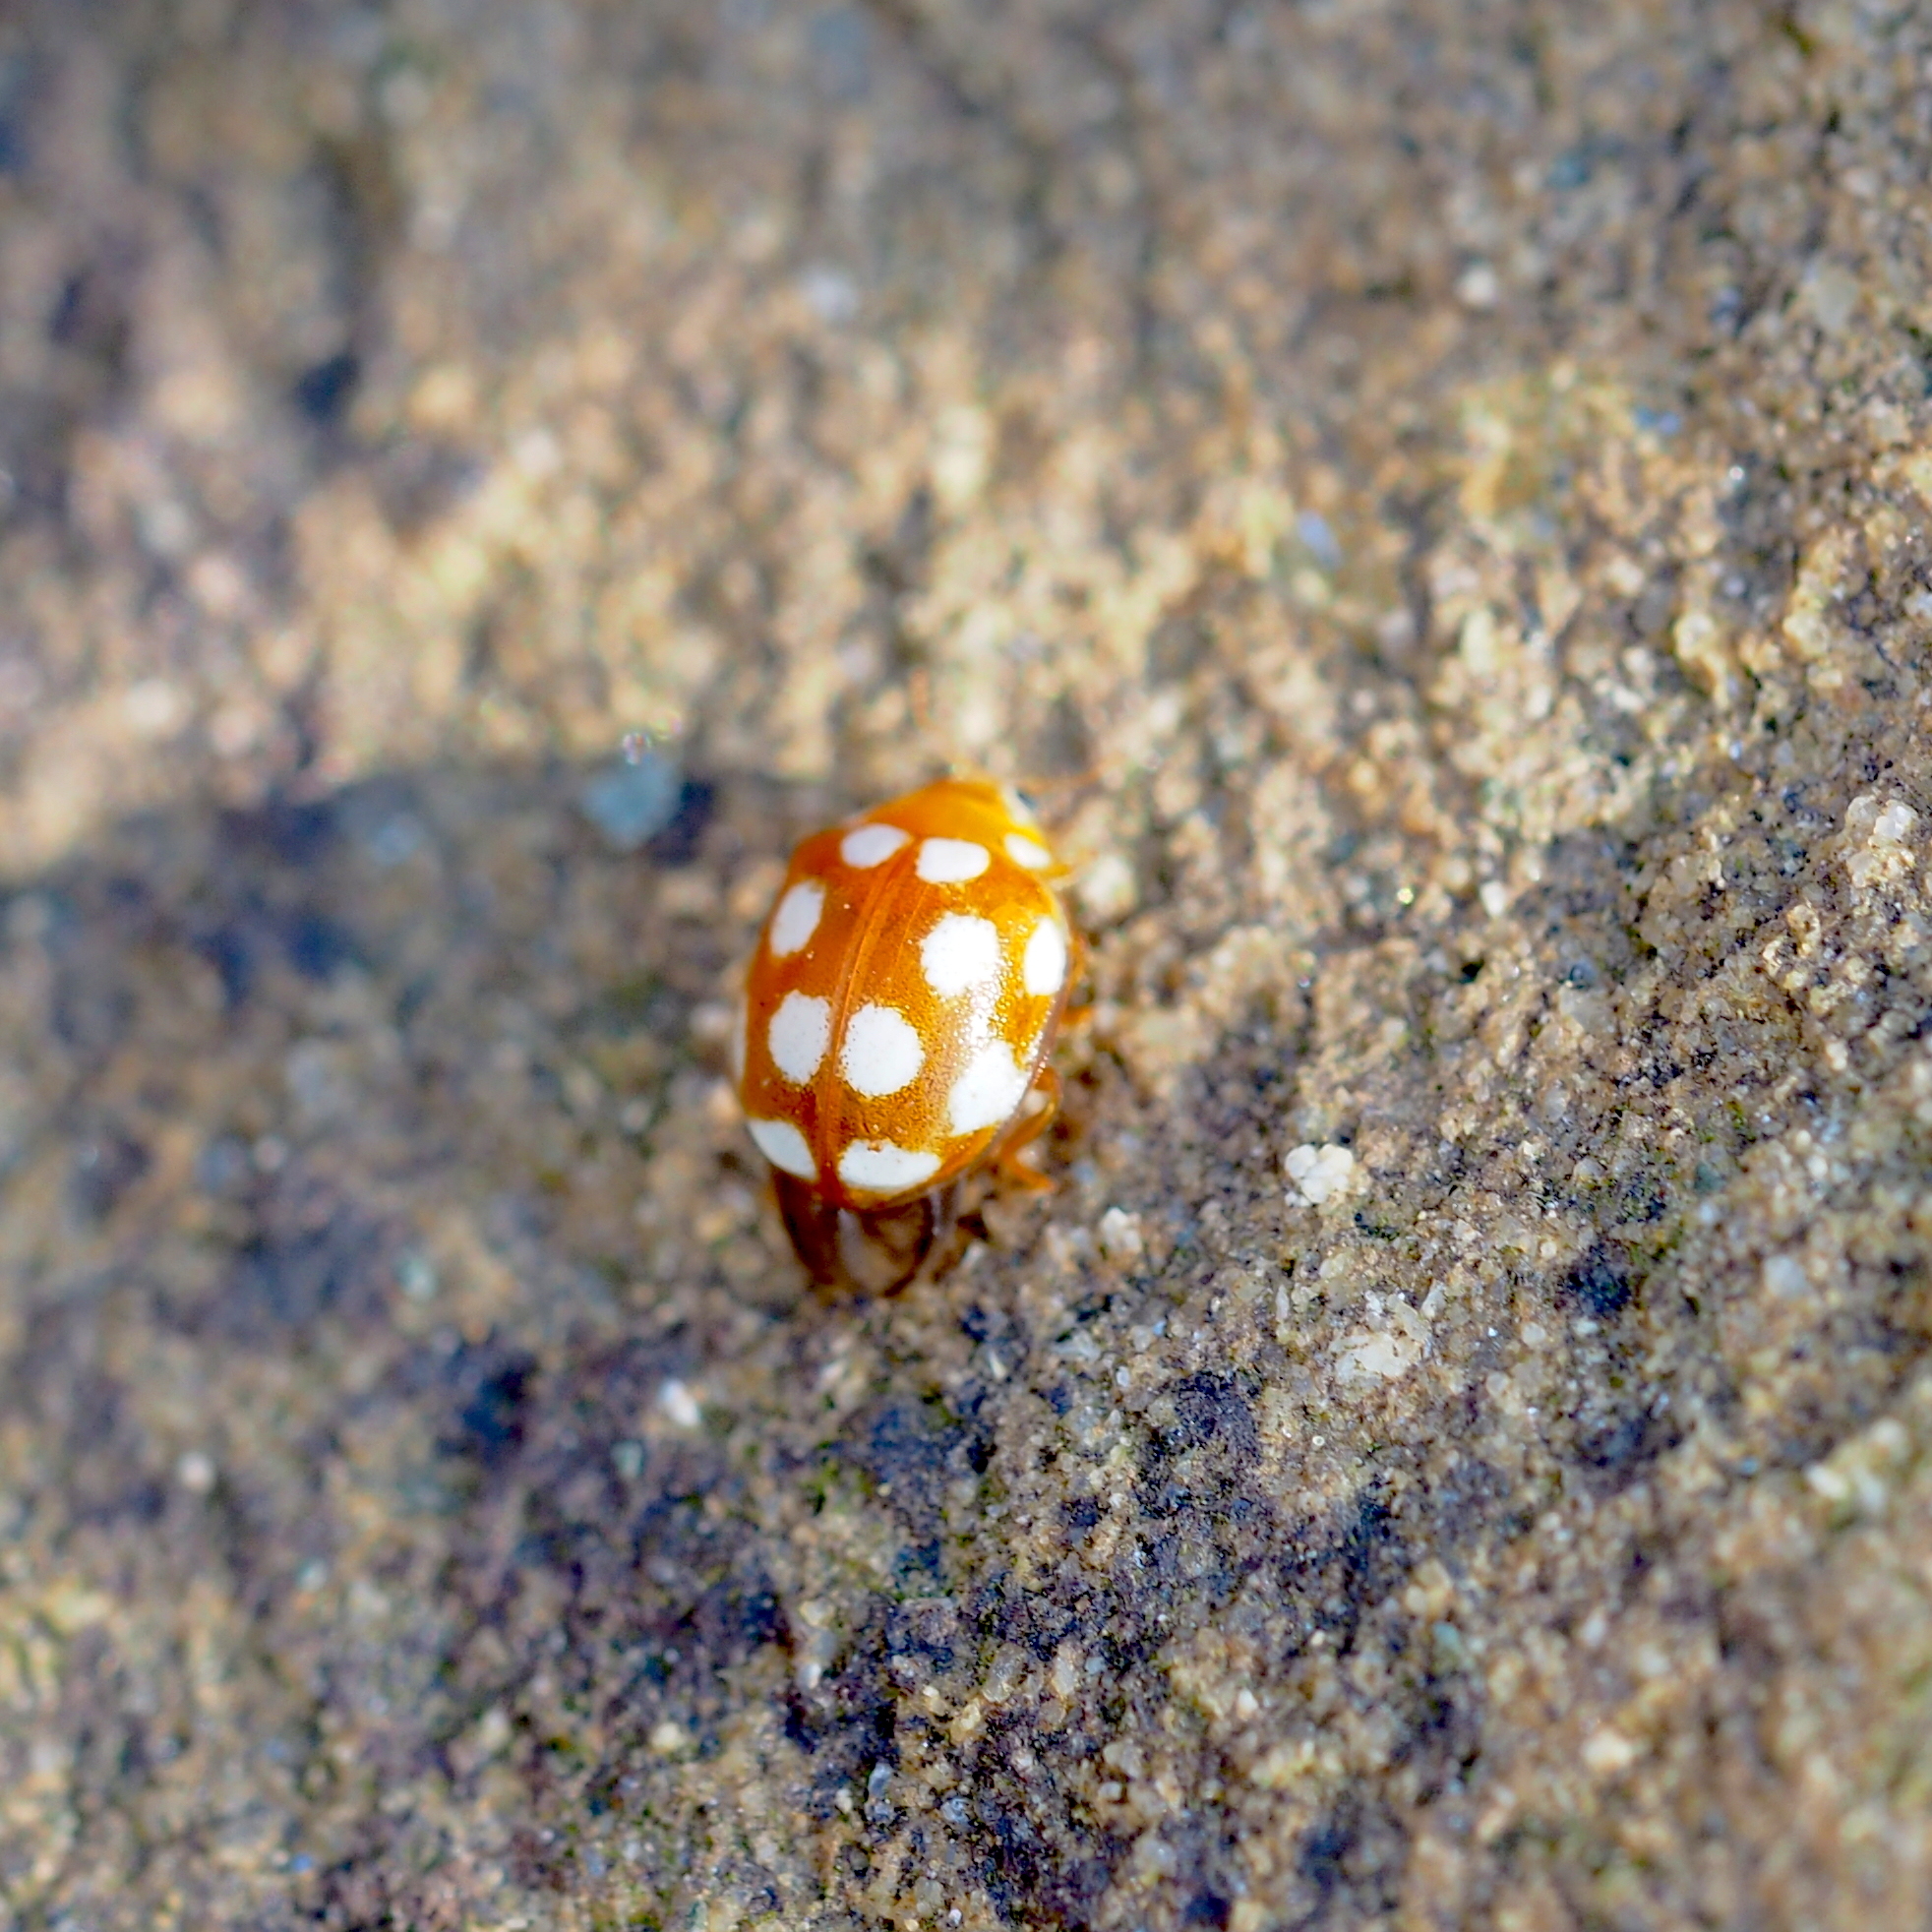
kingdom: Animalia
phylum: Arthropoda
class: Insecta
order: Coleoptera
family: Coccinellidae
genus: Vibidia
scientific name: Vibidia duodecimguttata
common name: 12-spot ladybird
